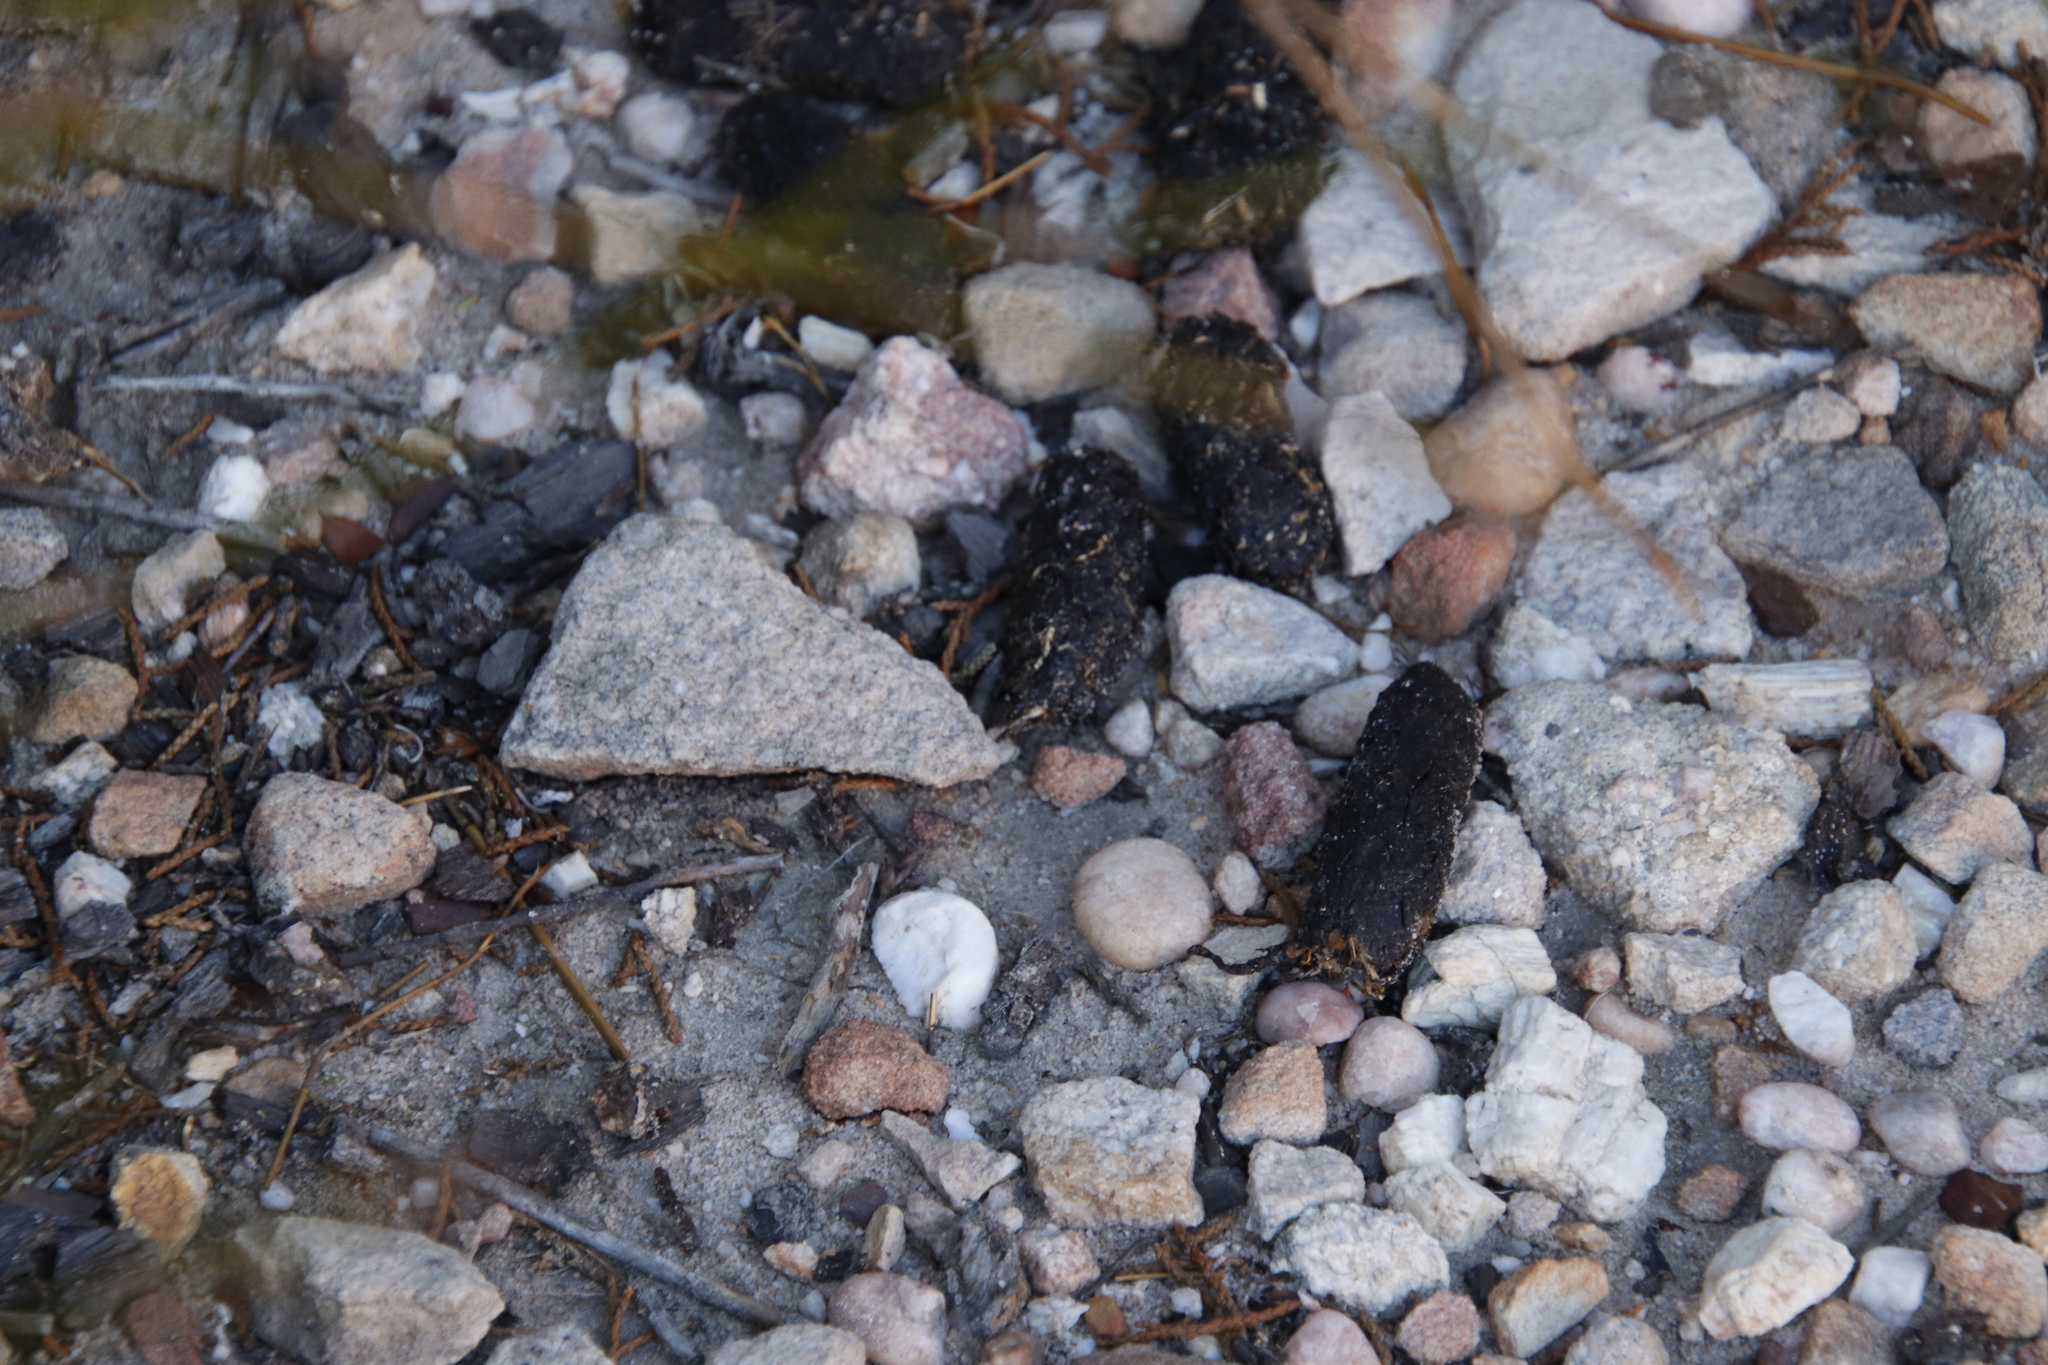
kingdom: Animalia
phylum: Chordata
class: Mammalia
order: Rodentia
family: Hystricidae
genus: Hystrix
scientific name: Hystrix africaeaustralis
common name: Cape porcupine
